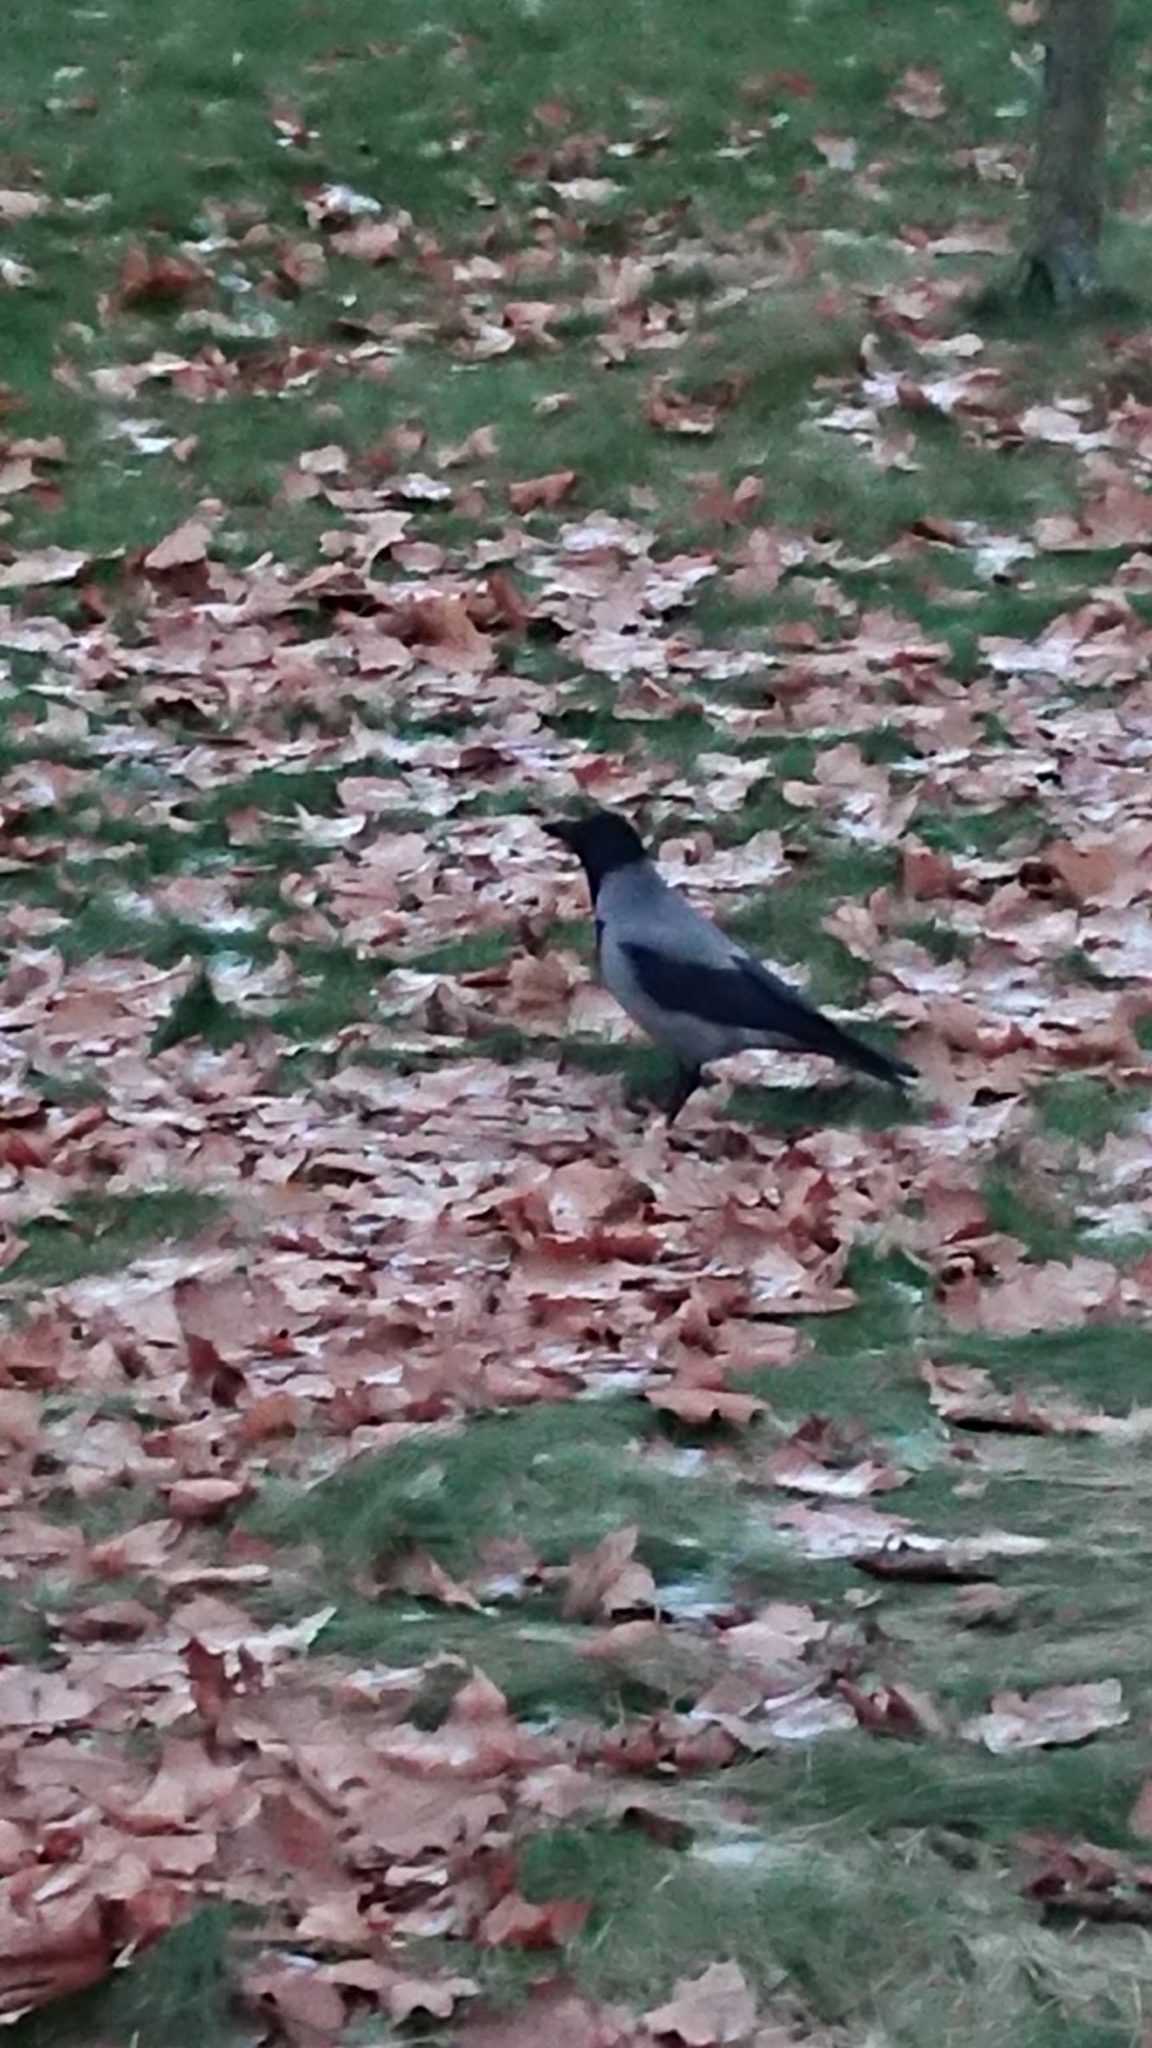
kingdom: Animalia
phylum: Chordata
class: Aves
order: Passeriformes
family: Corvidae
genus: Corvus
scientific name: Corvus cornix
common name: Hooded crow
